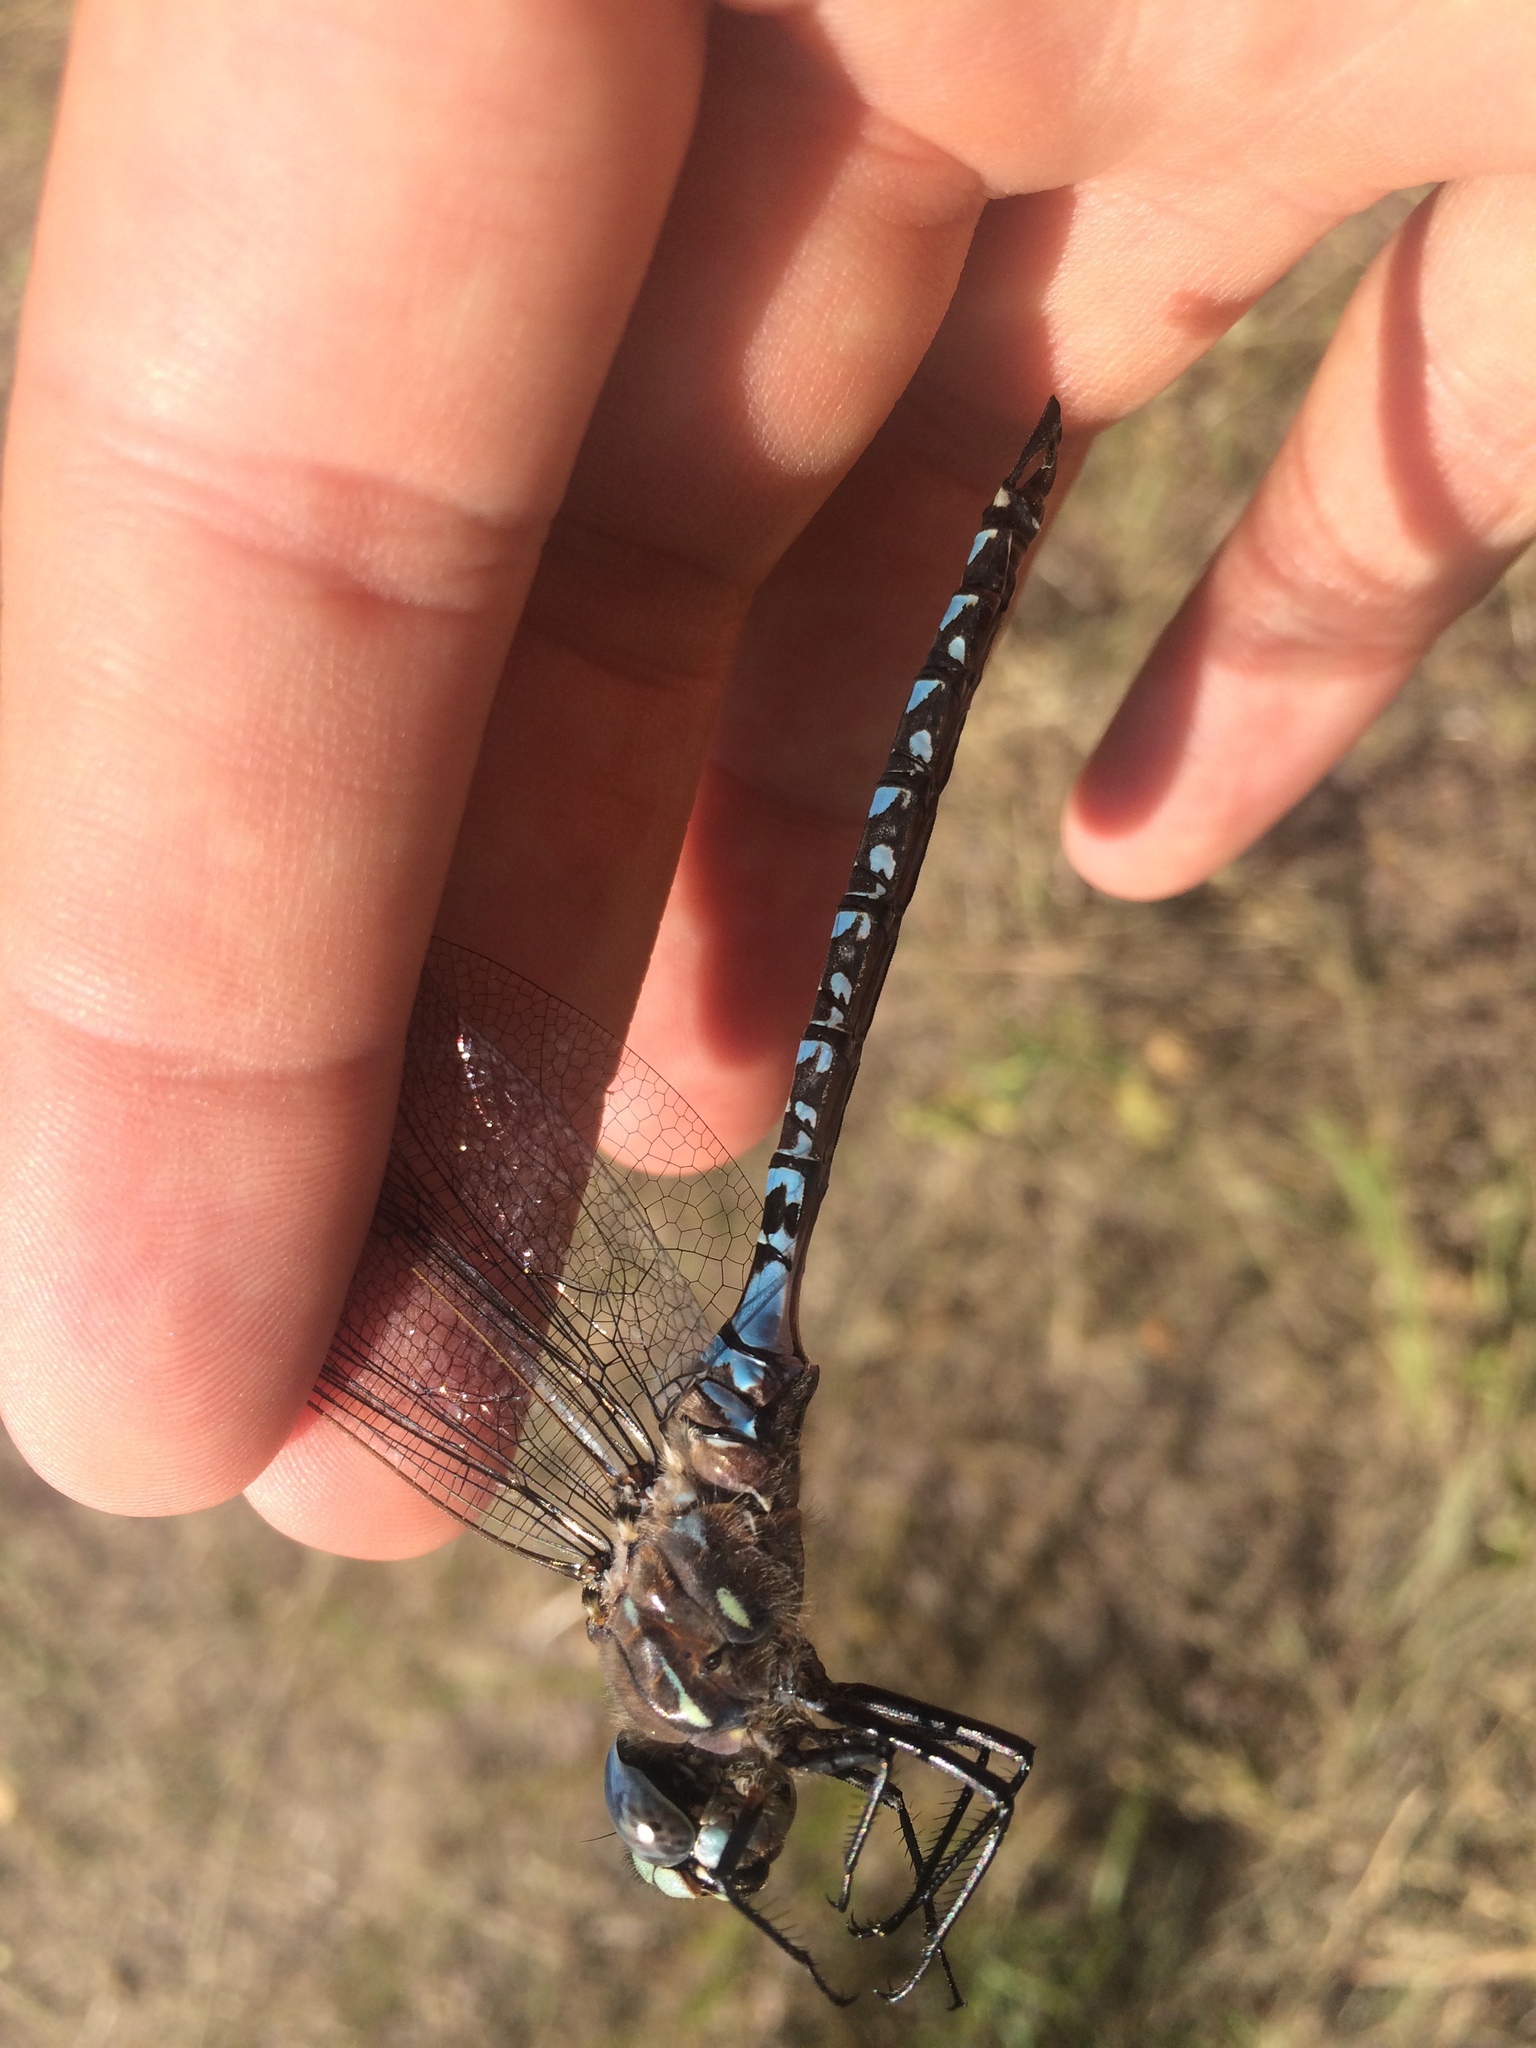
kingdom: Animalia
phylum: Arthropoda
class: Insecta
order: Odonata
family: Aeshnidae
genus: Aeshna
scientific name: Aeshna interrupta
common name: Variable darner
